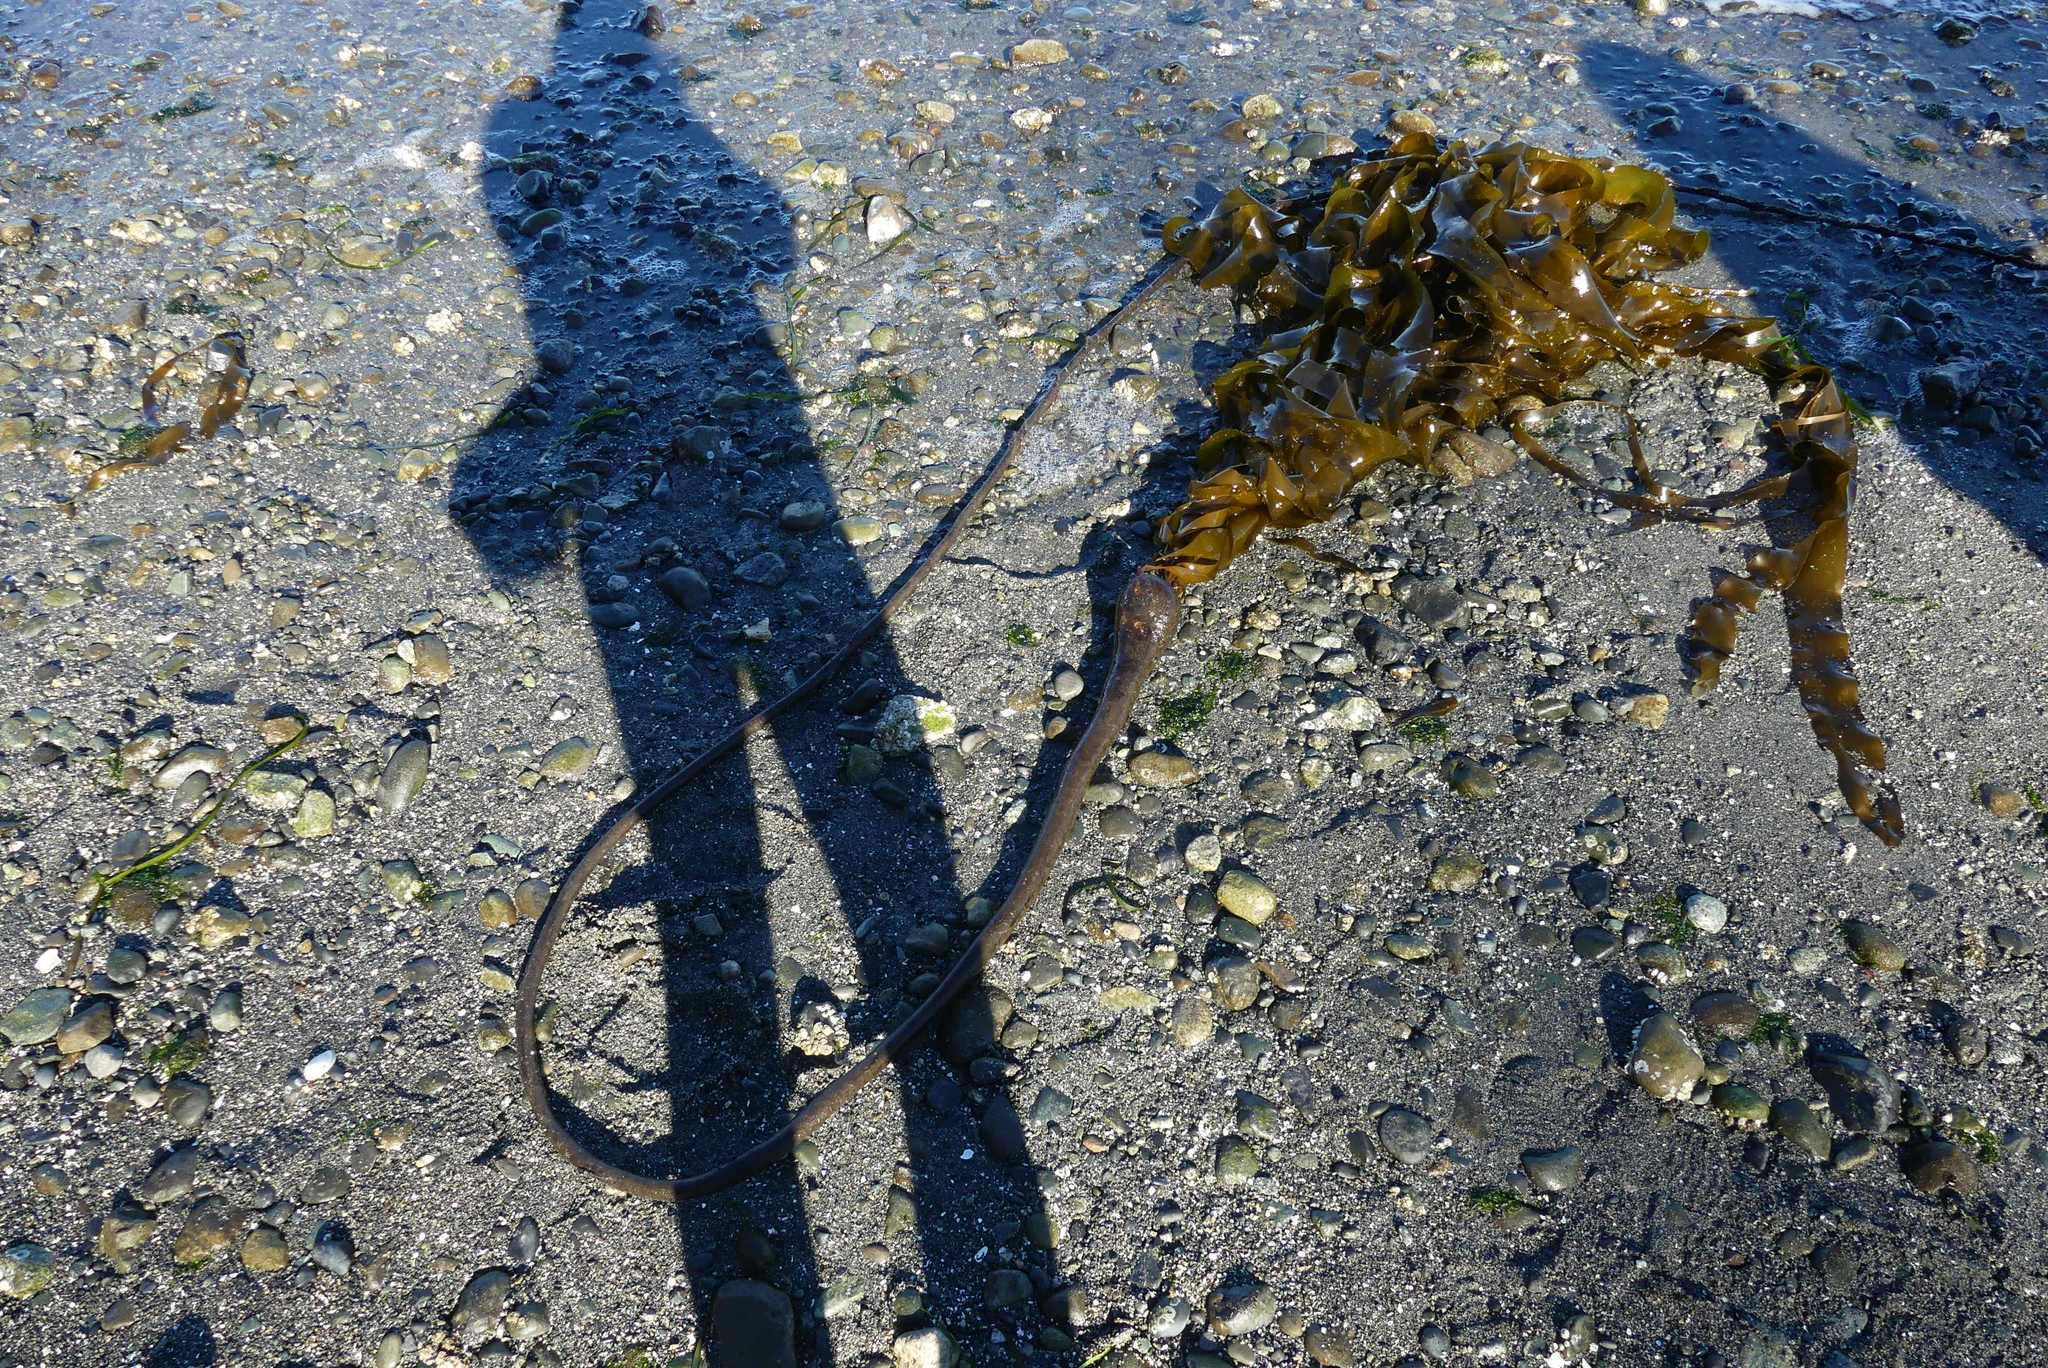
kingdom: Chromista
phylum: Ochrophyta
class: Phaeophyceae
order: Laminariales
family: Laminariaceae
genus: Nereocystis
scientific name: Nereocystis luetkeana
